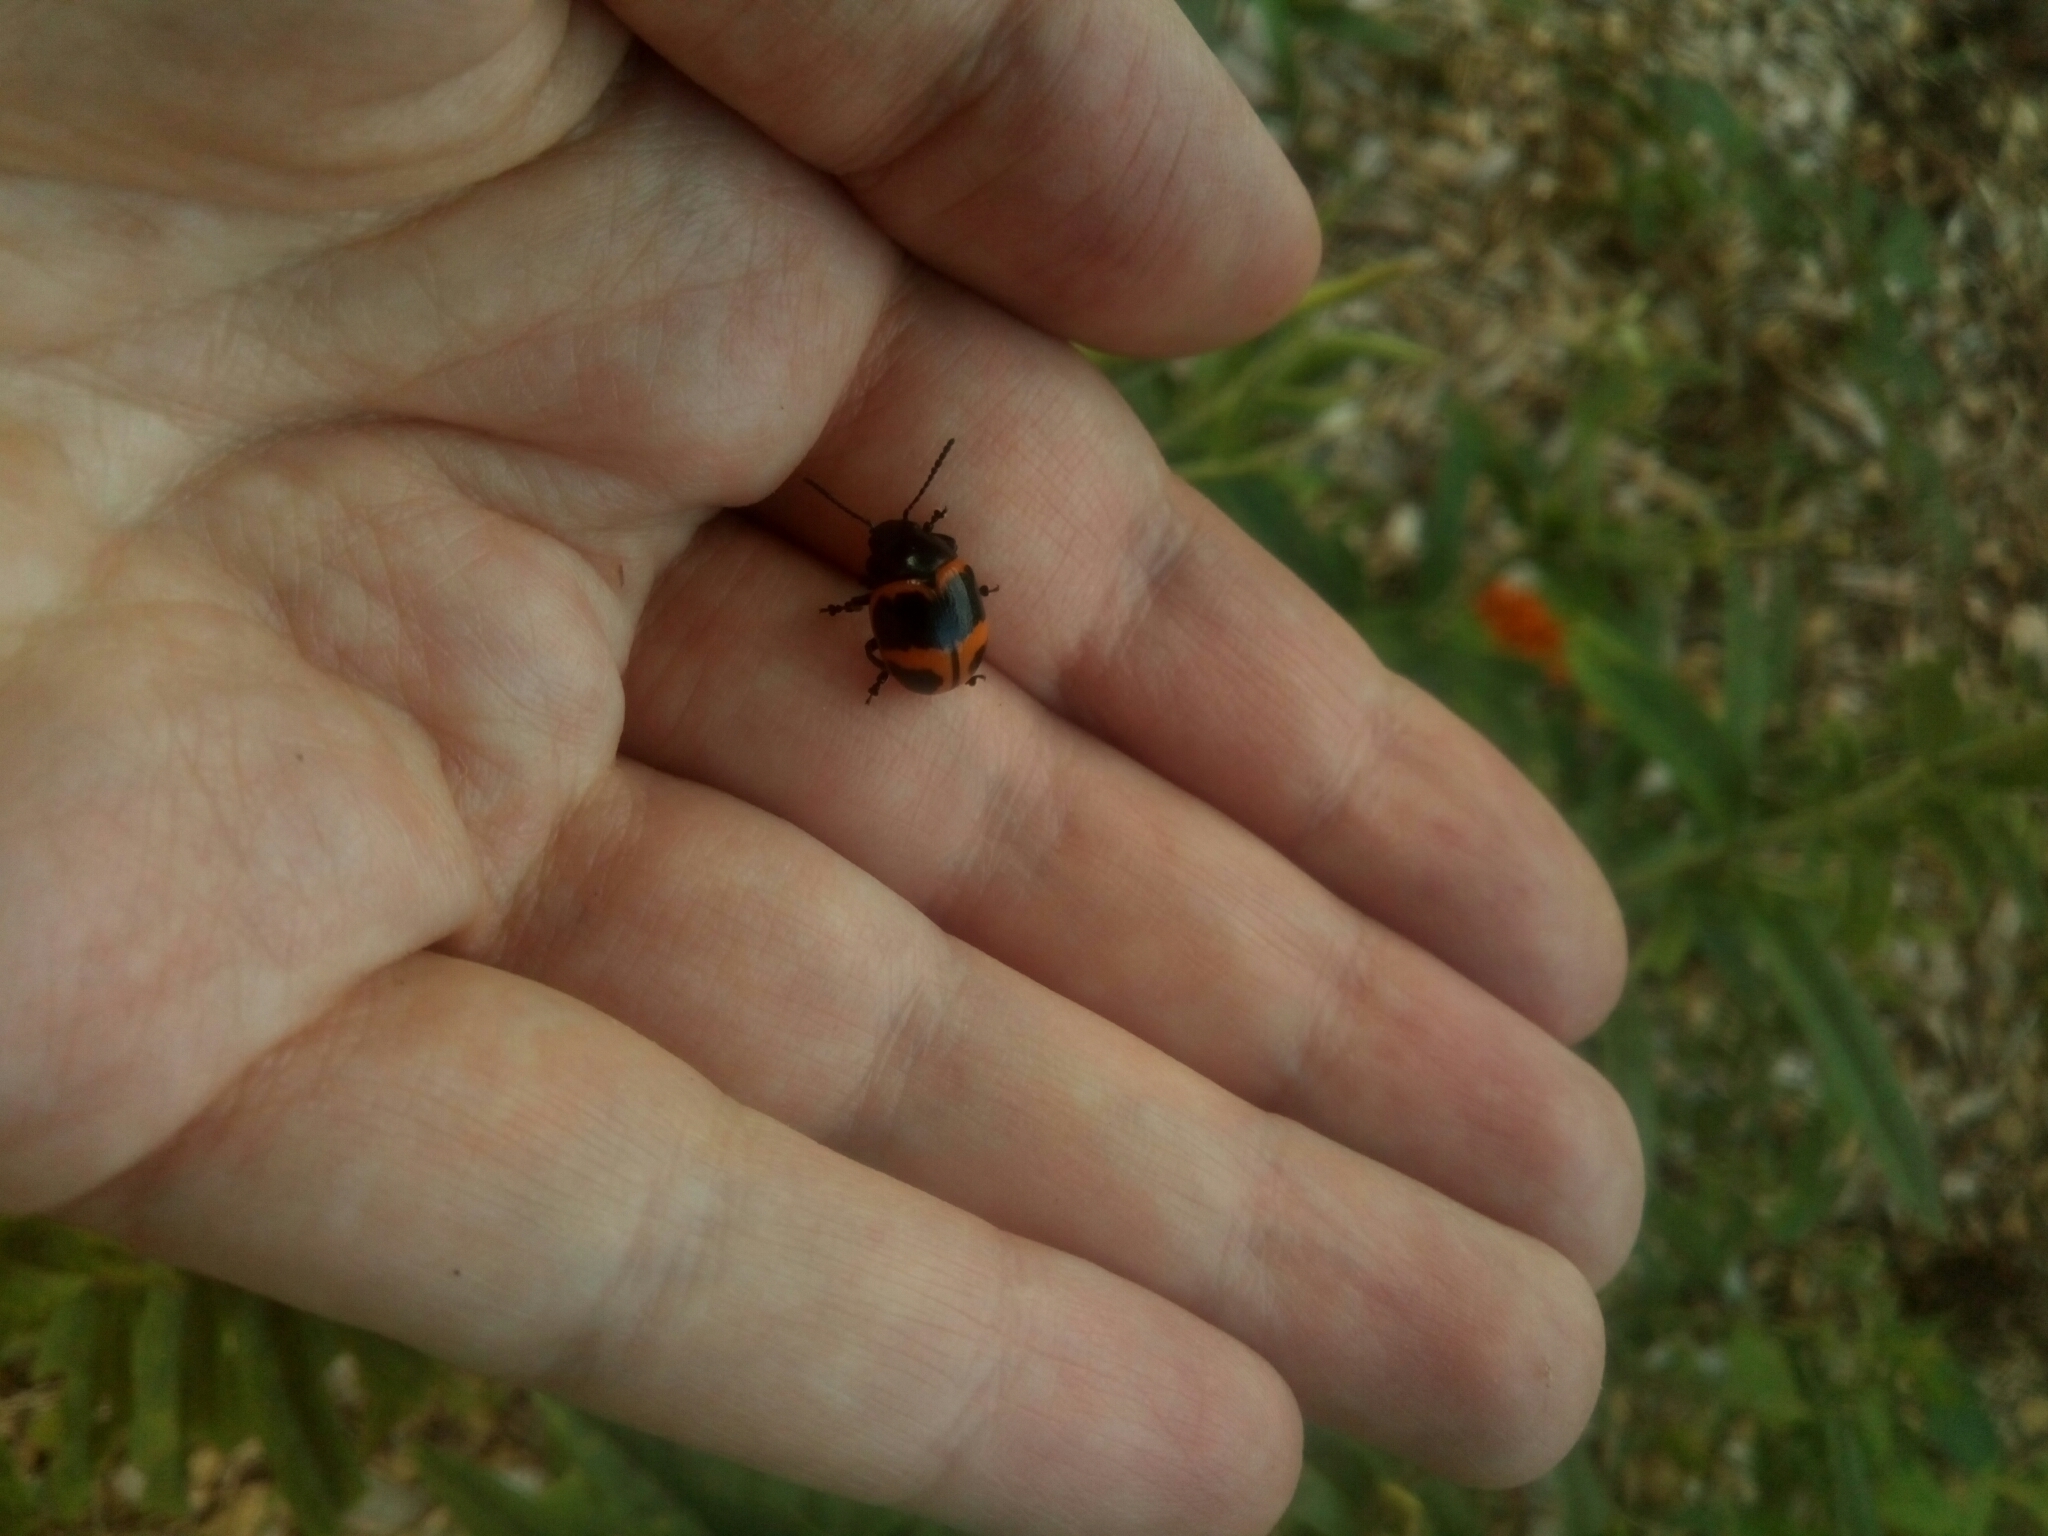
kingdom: Animalia
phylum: Arthropoda
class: Insecta
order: Coleoptera
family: Chrysomelidae
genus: Labidomera
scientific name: Labidomera clivicollis
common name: Swamp milkweed leaf beetle
